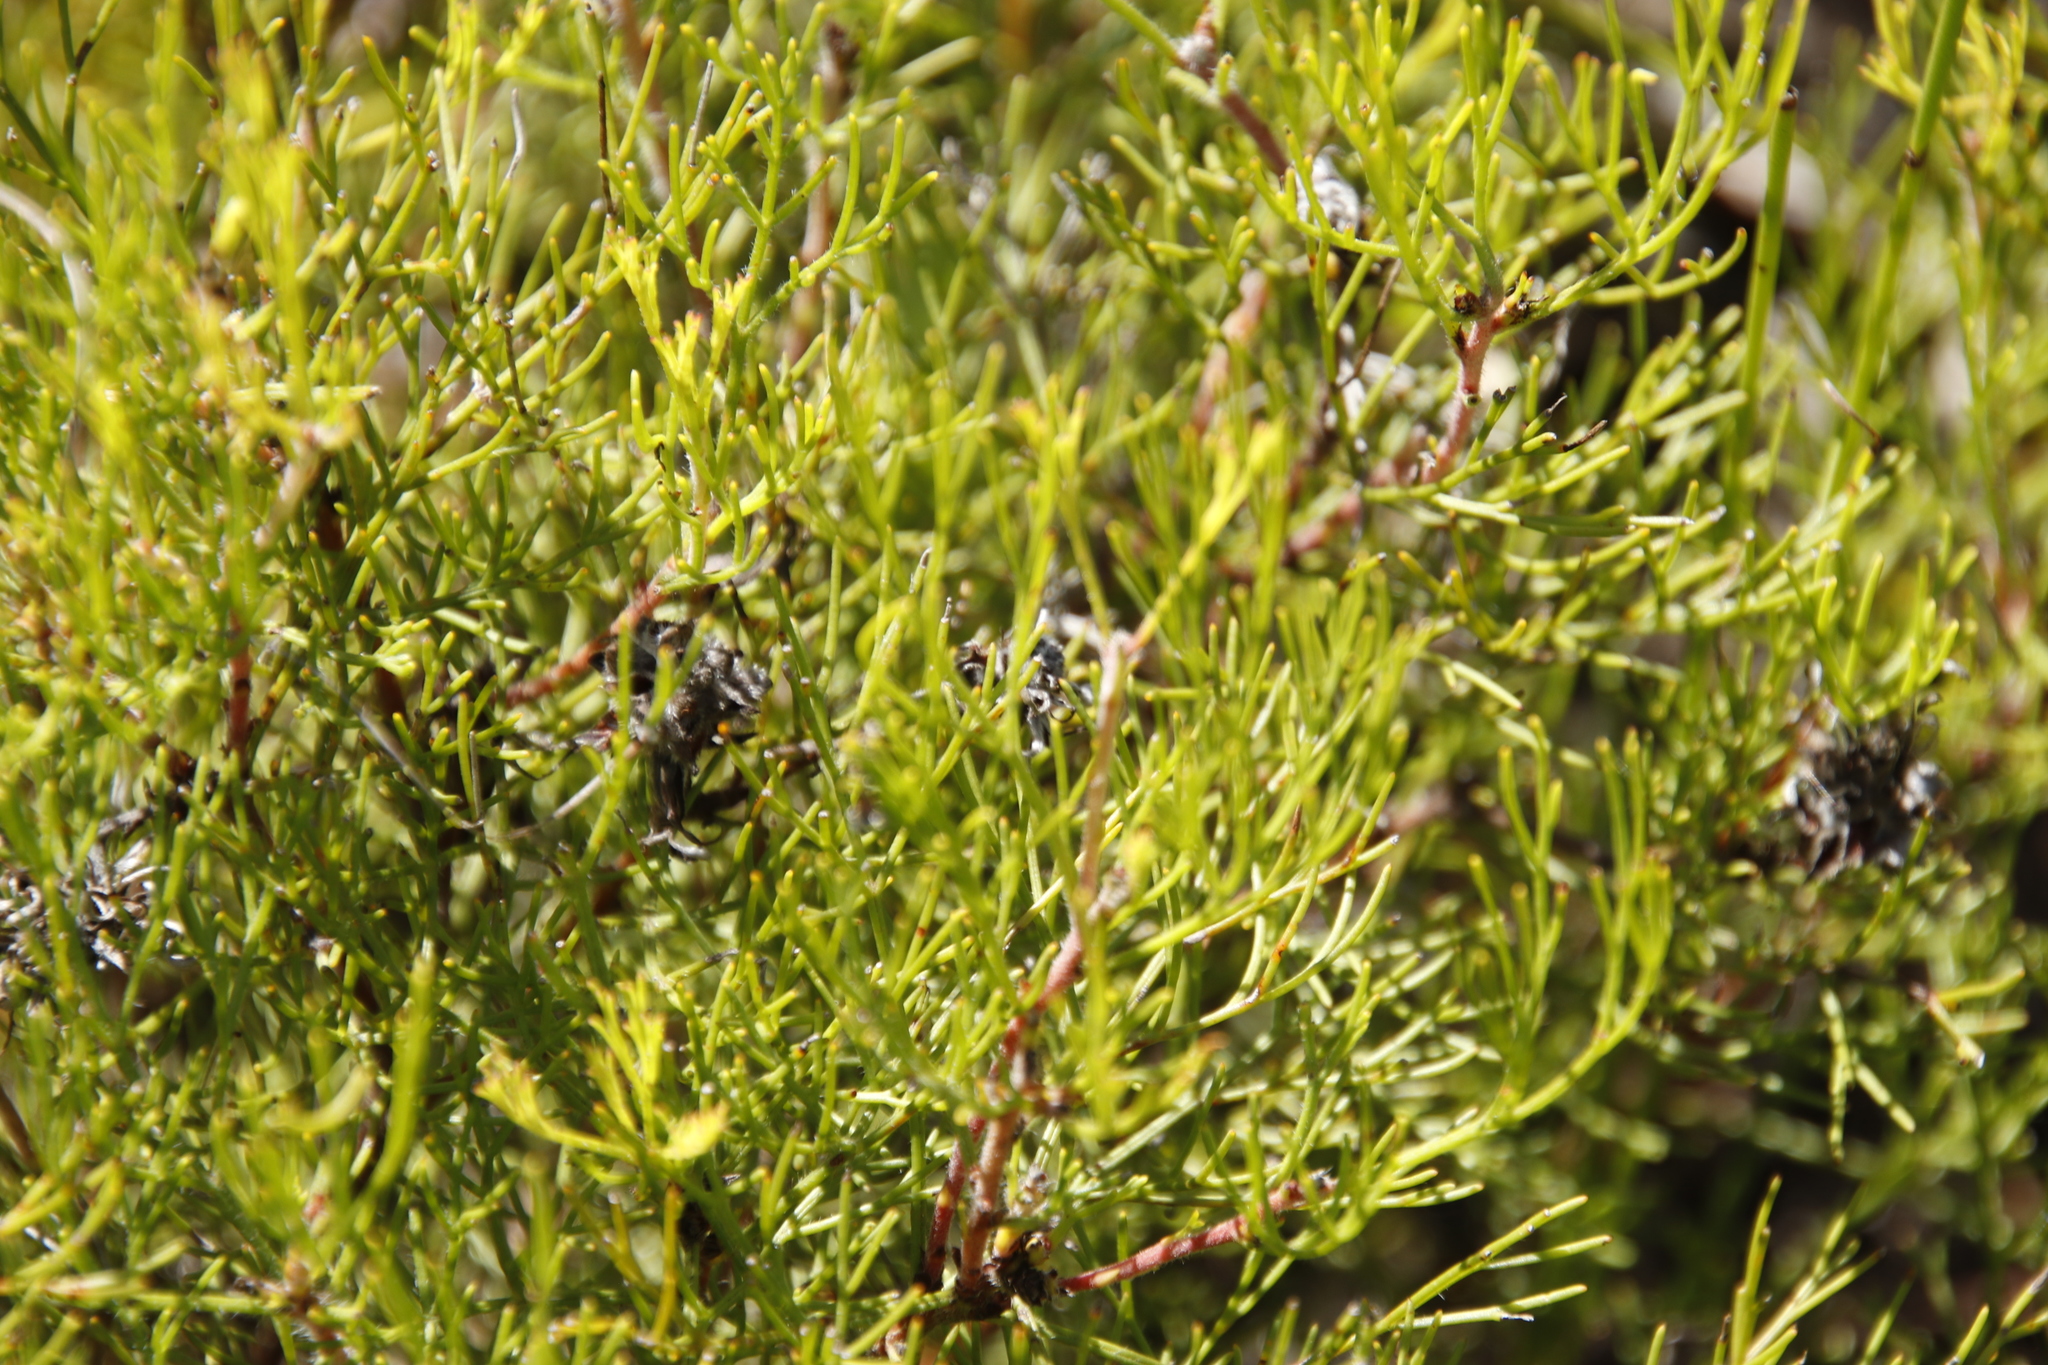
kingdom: Plantae
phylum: Tracheophyta
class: Magnoliopsida
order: Proteales
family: Proteaceae
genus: Serruria
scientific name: Serruria gremialis
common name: Riviersonderend spiderhead
